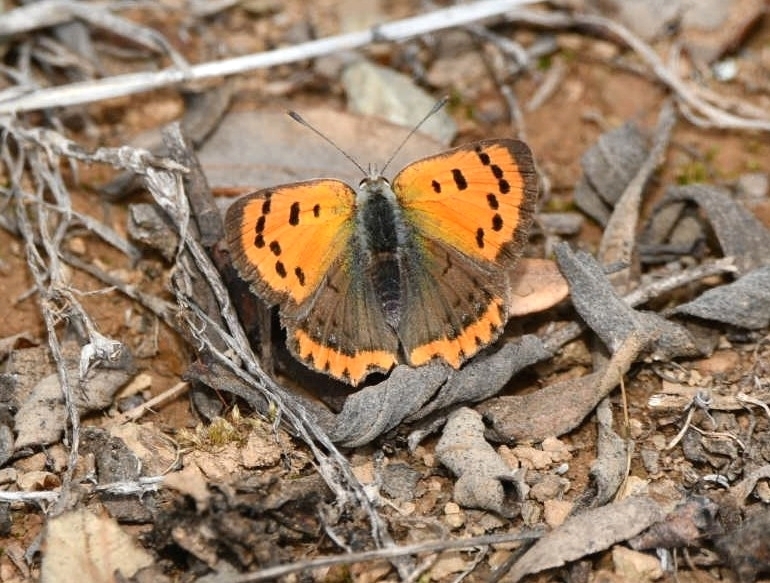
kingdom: Animalia
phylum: Arthropoda
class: Insecta
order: Lepidoptera
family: Lycaenidae
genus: Lycaena
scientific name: Lycaena phlaeas
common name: Small copper
